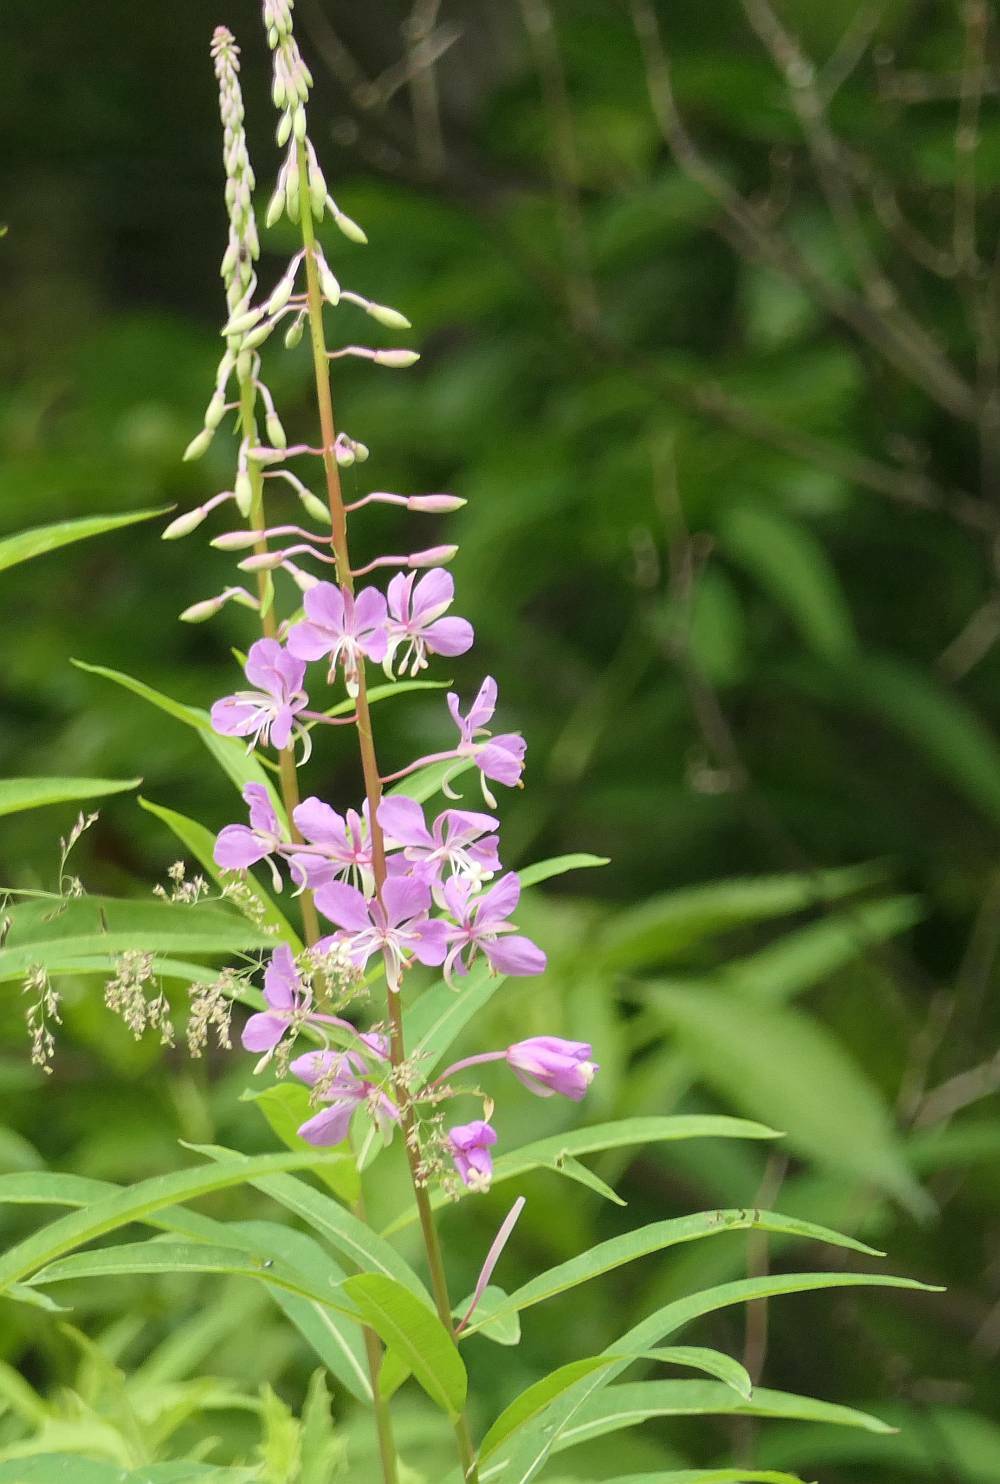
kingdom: Plantae
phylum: Tracheophyta
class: Magnoliopsida
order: Myrtales
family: Onagraceae
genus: Chamaenerion
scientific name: Chamaenerion angustifolium
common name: Fireweed
